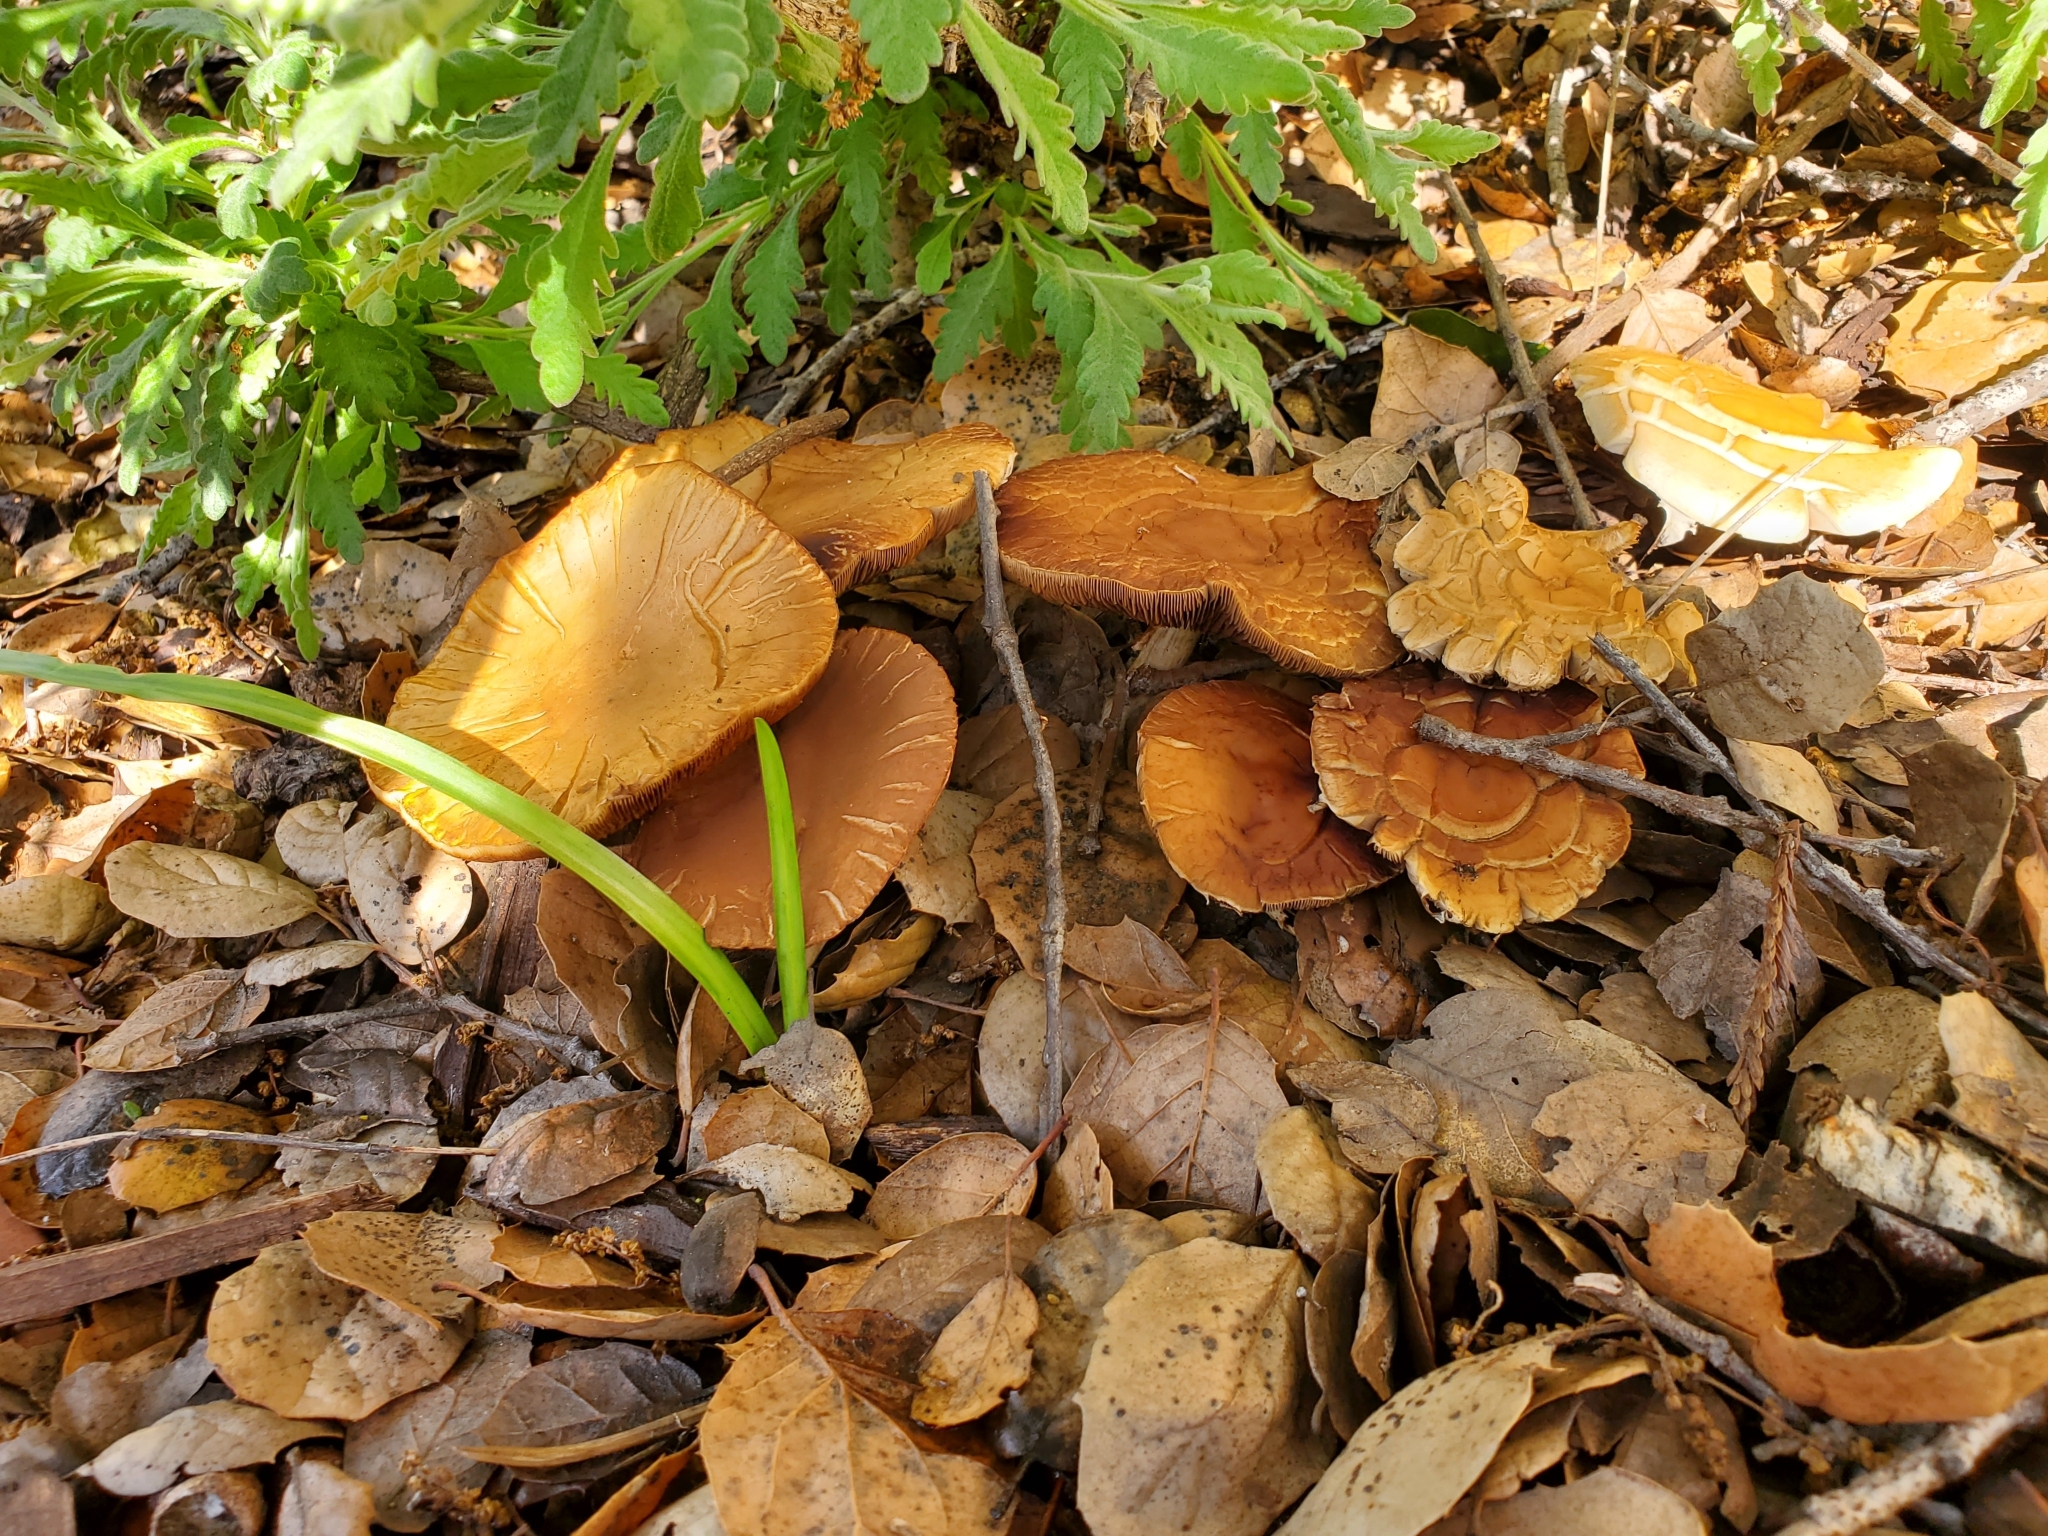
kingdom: Fungi
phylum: Basidiomycota
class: Agaricomycetes
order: Agaricales
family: Strophariaceae
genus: Agrocybe
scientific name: Agrocybe praecox
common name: Spring fieldcap
